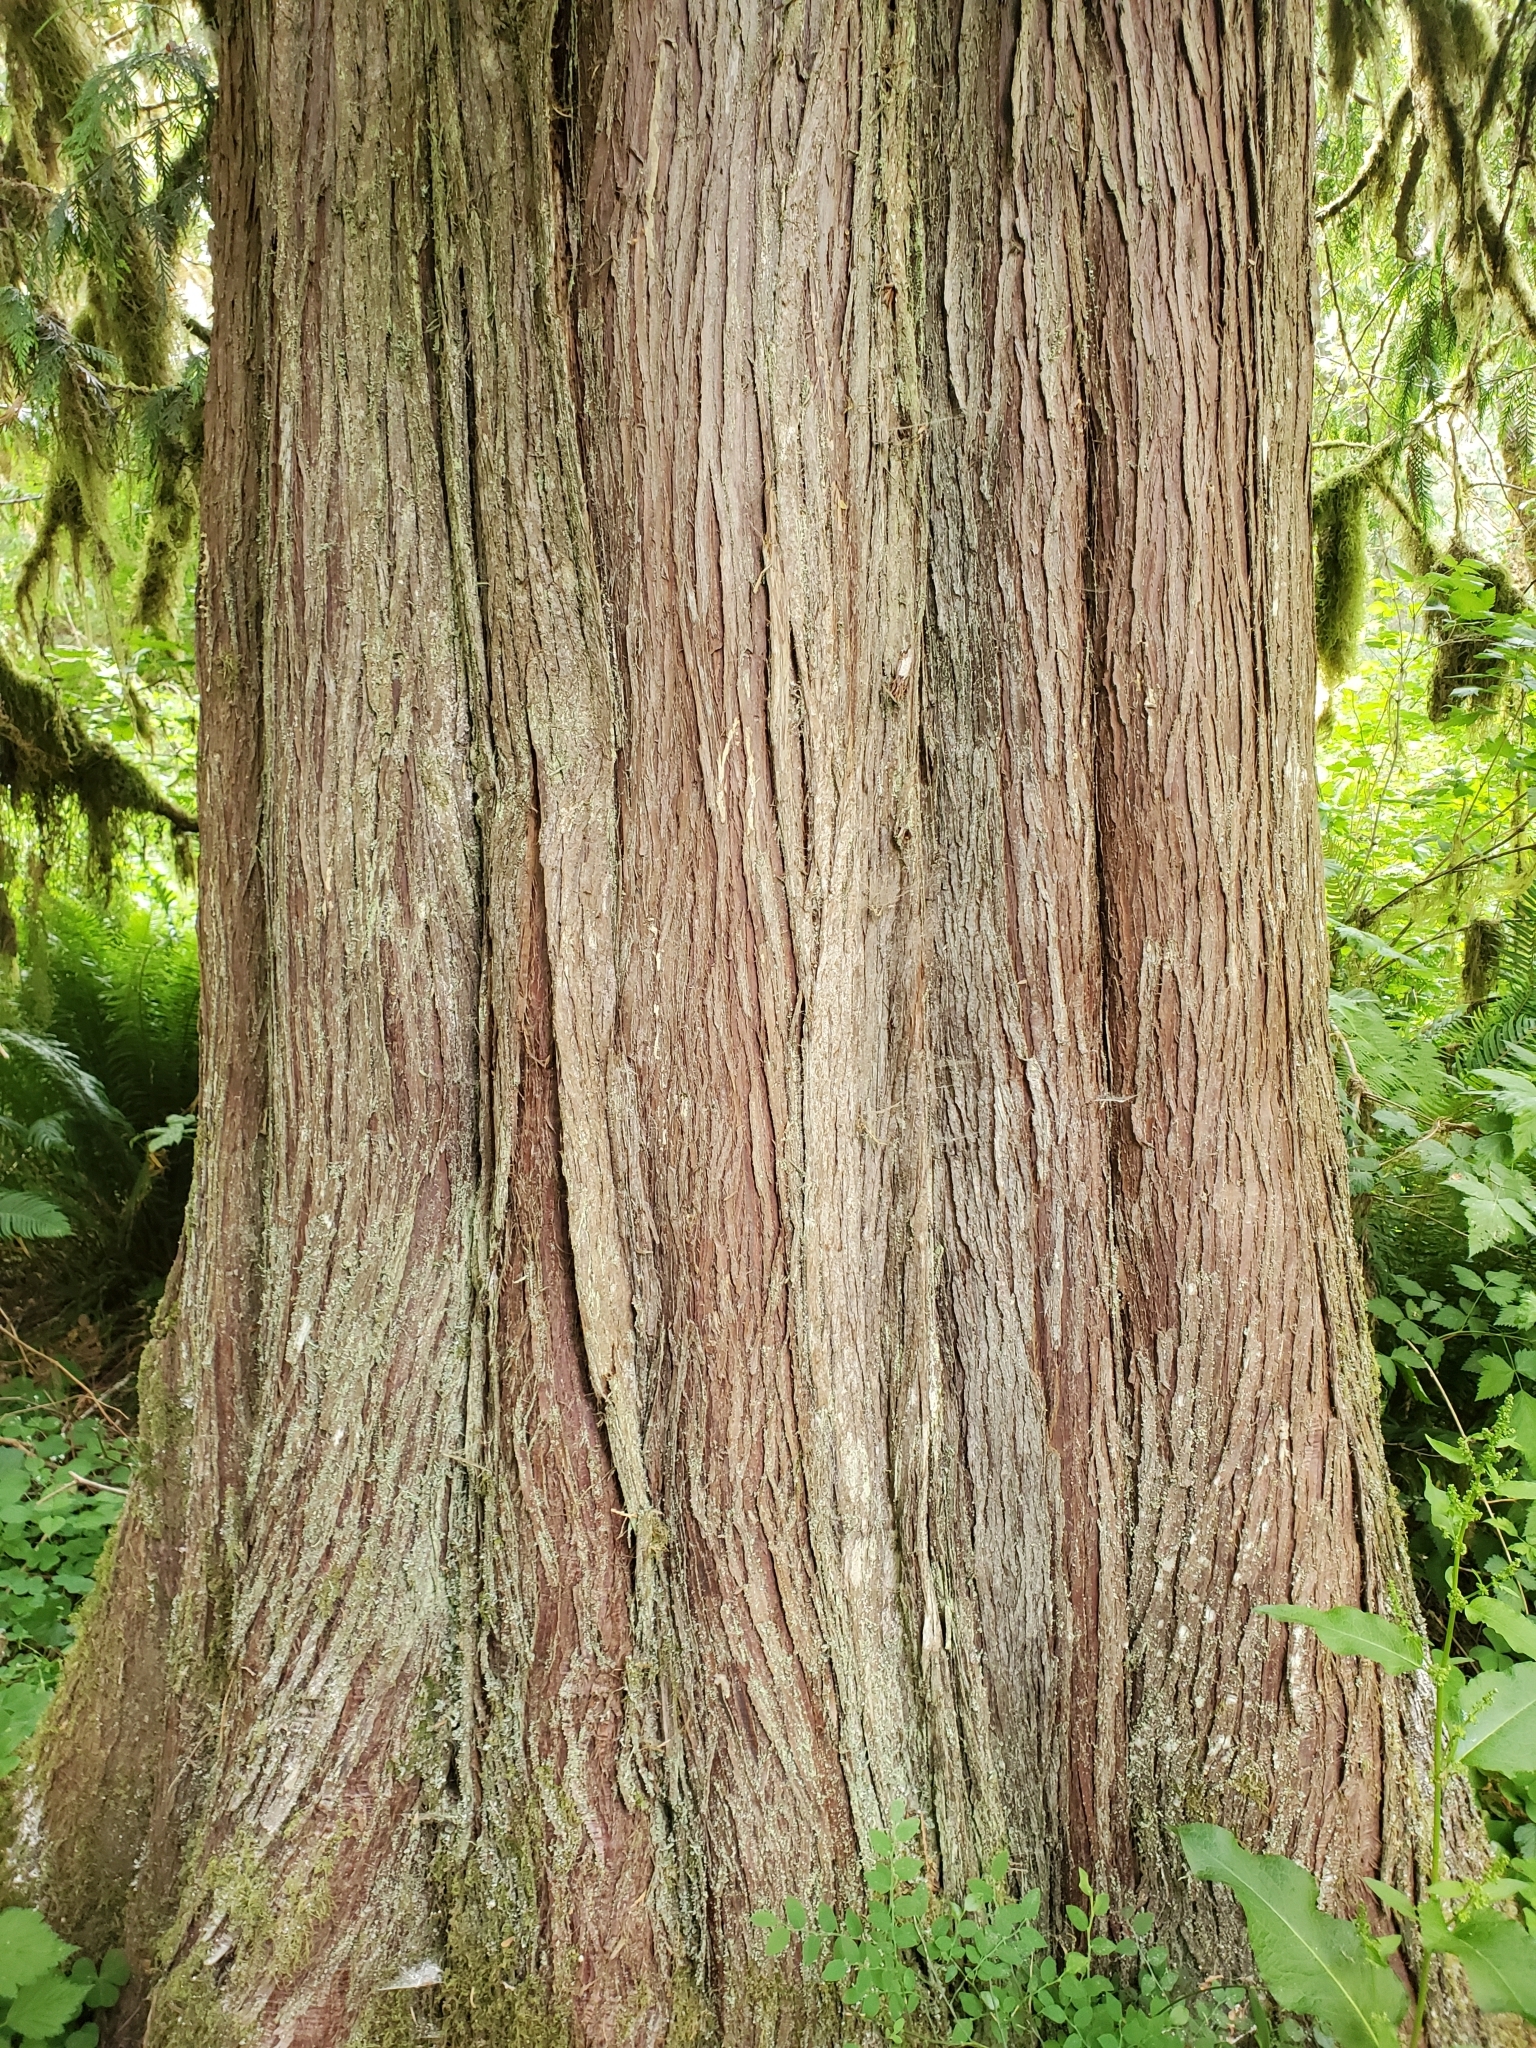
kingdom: Plantae
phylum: Tracheophyta
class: Pinopsida
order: Pinales
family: Cupressaceae
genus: Thuja
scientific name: Thuja plicata
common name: Western red-cedar
